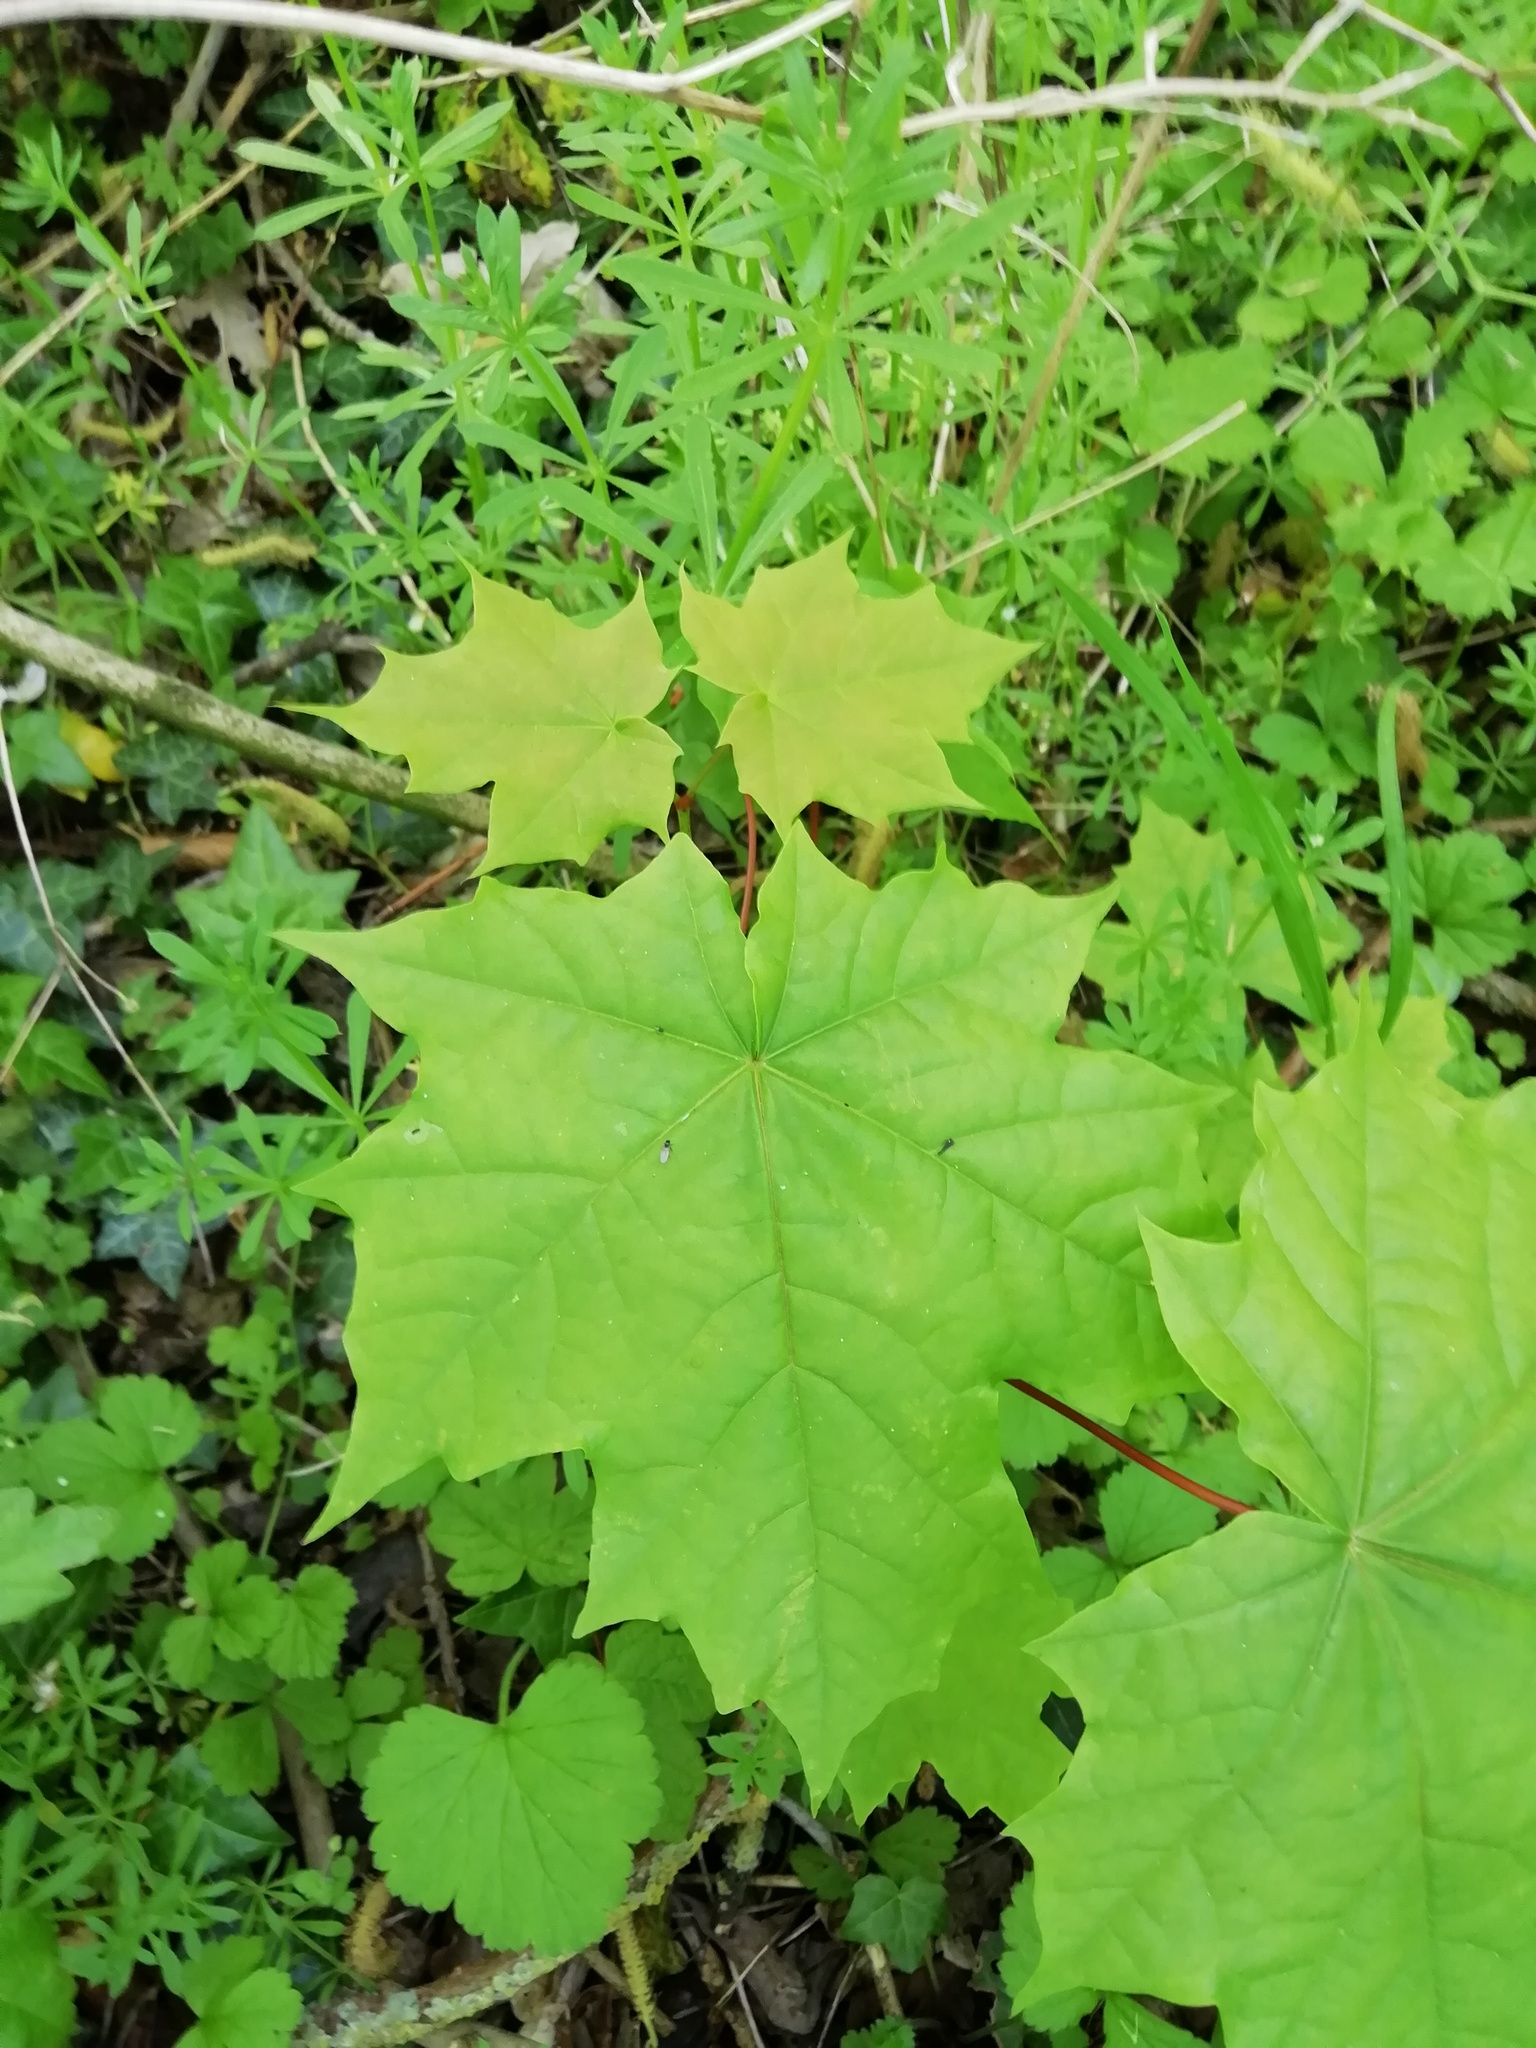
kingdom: Plantae
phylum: Tracheophyta
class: Magnoliopsida
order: Sapindales
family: Sapindaceae
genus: Acer
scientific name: Acer platanoides
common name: Norway maple
